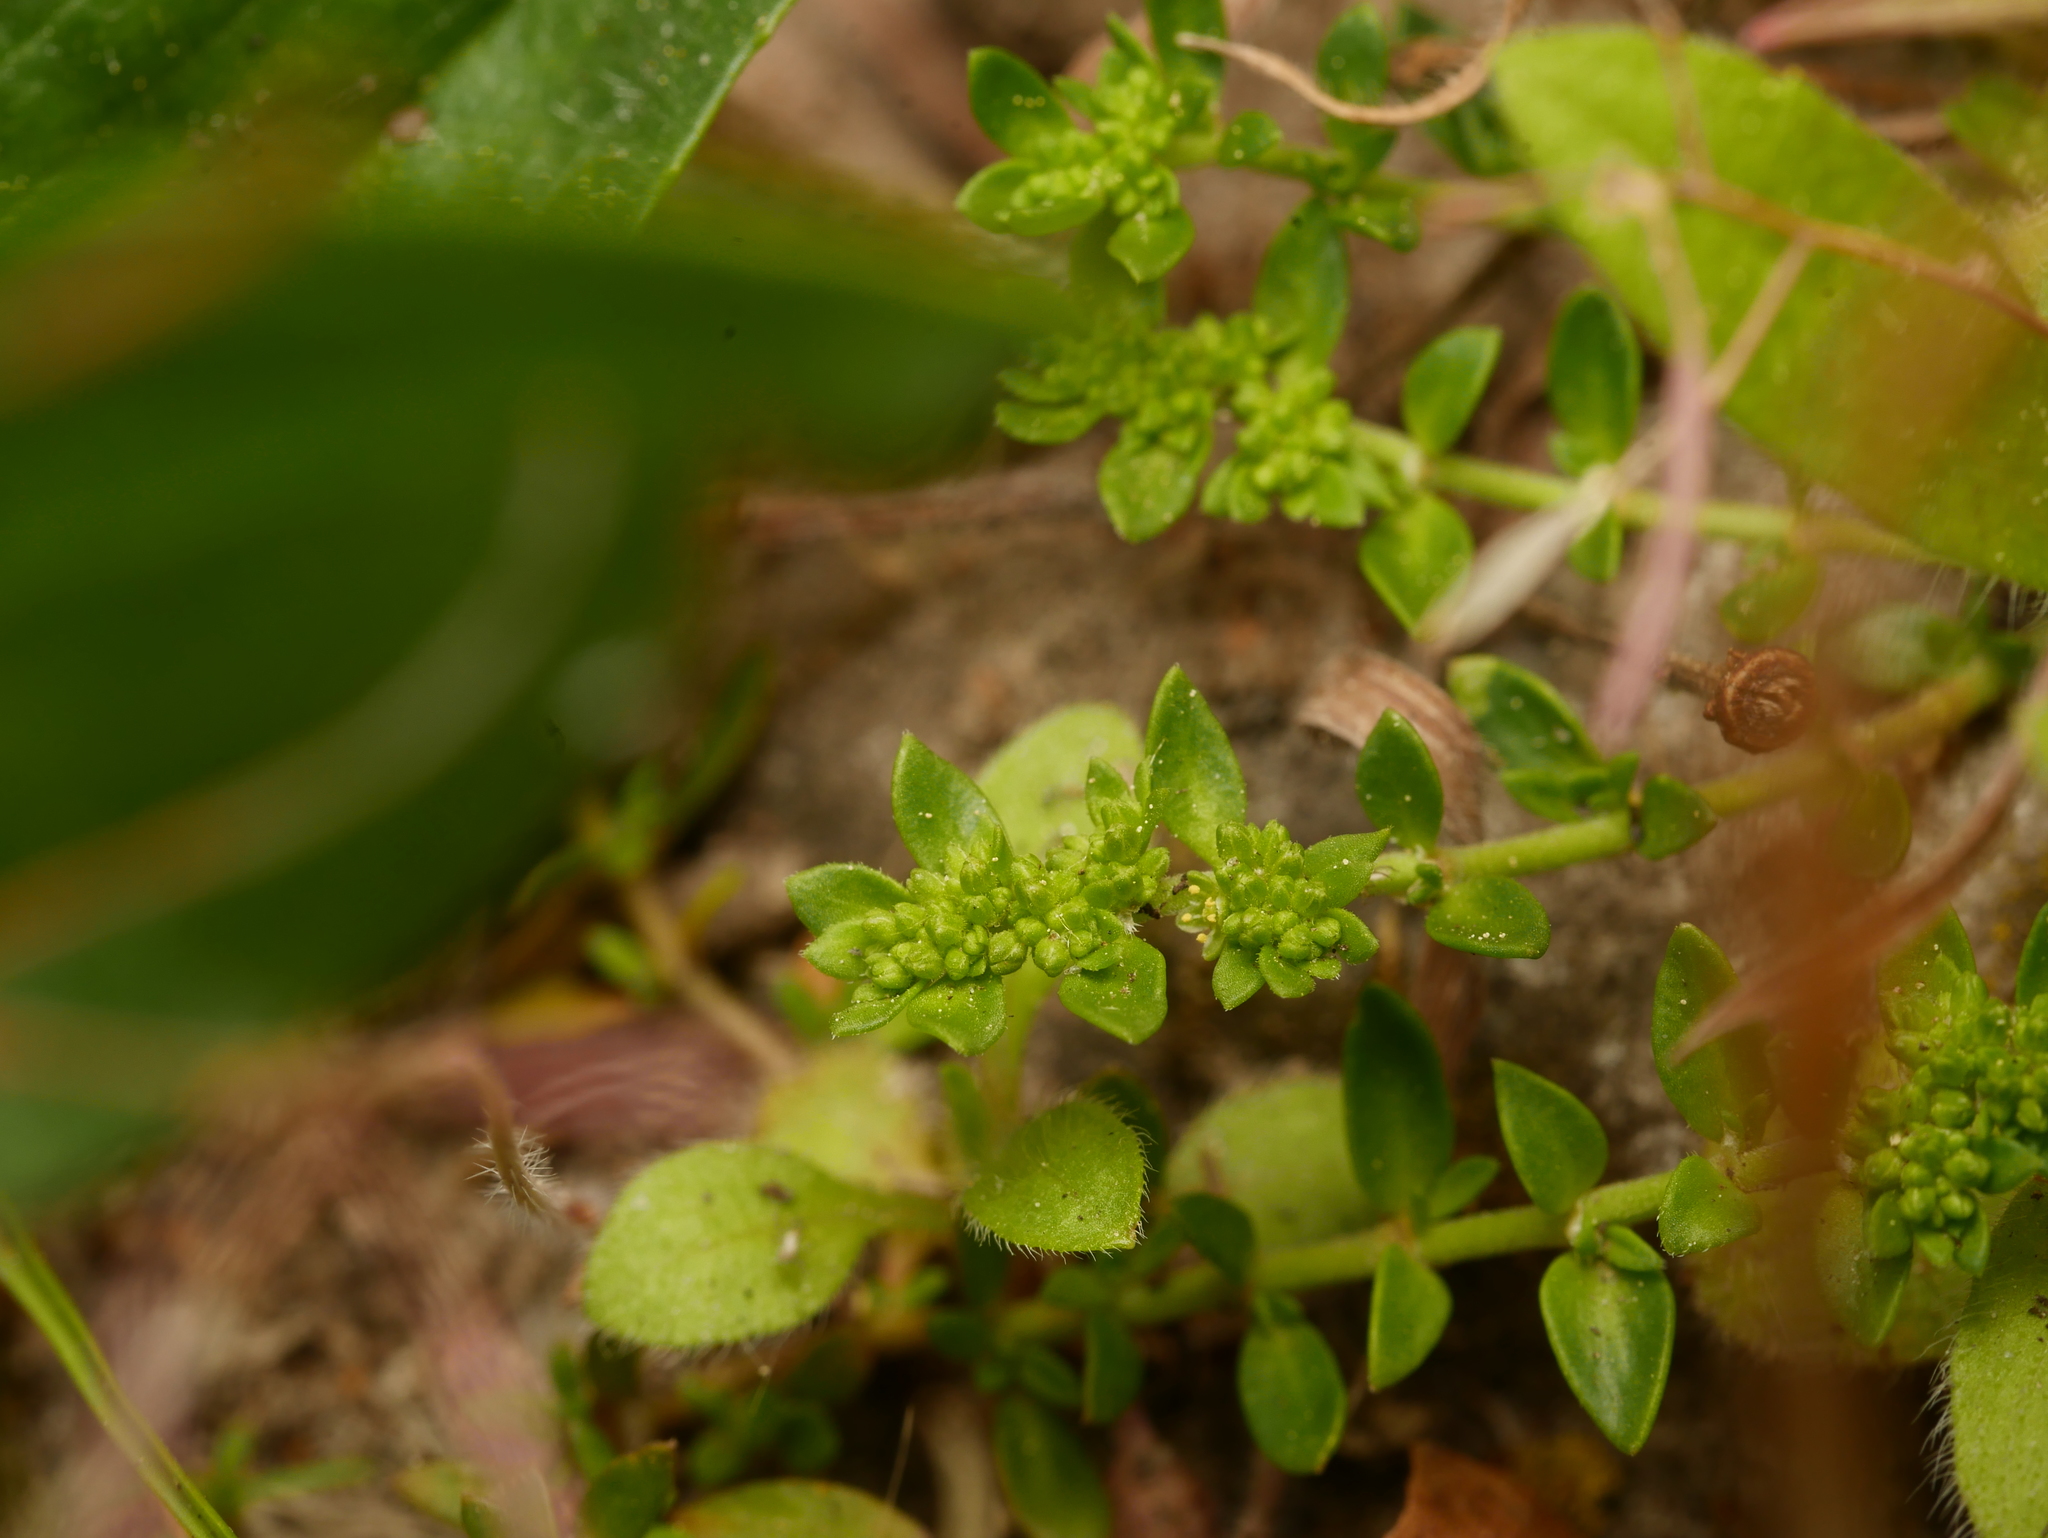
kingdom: Plantae
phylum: Tracheophyta
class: Magnoliopsida
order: Caryophyllales
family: Caryophyllaceae
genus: Herniaria
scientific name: Herniaria glabra
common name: Smooth rupturewort
